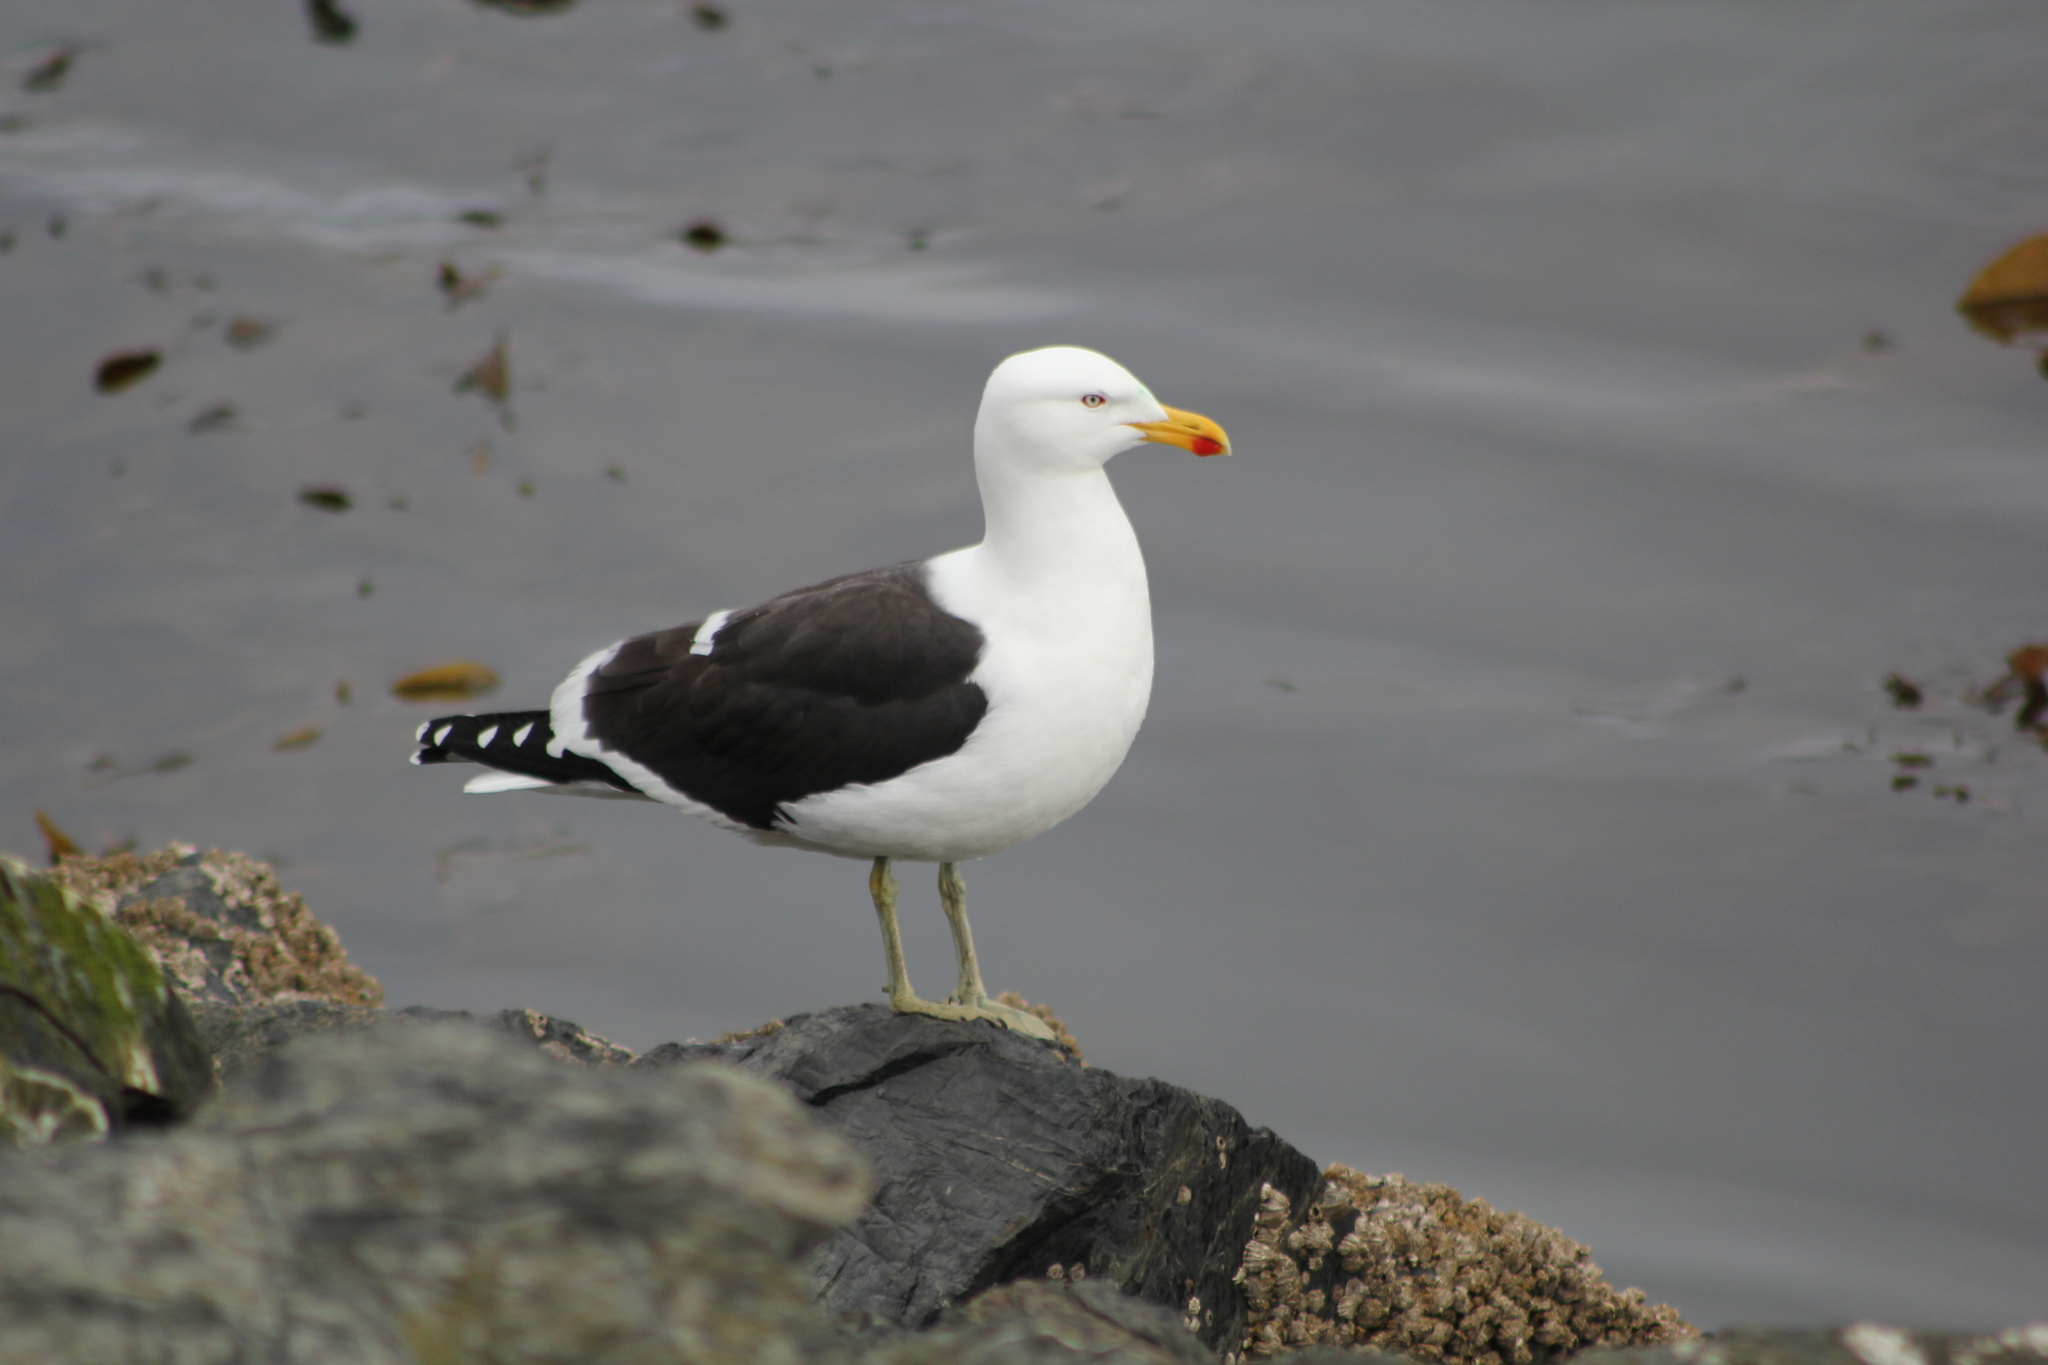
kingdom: Animalia
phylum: Chordata
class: Aves
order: Charadriiformes
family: Laridae
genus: Larus
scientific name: Larus dominicanus
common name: Kelp gull
